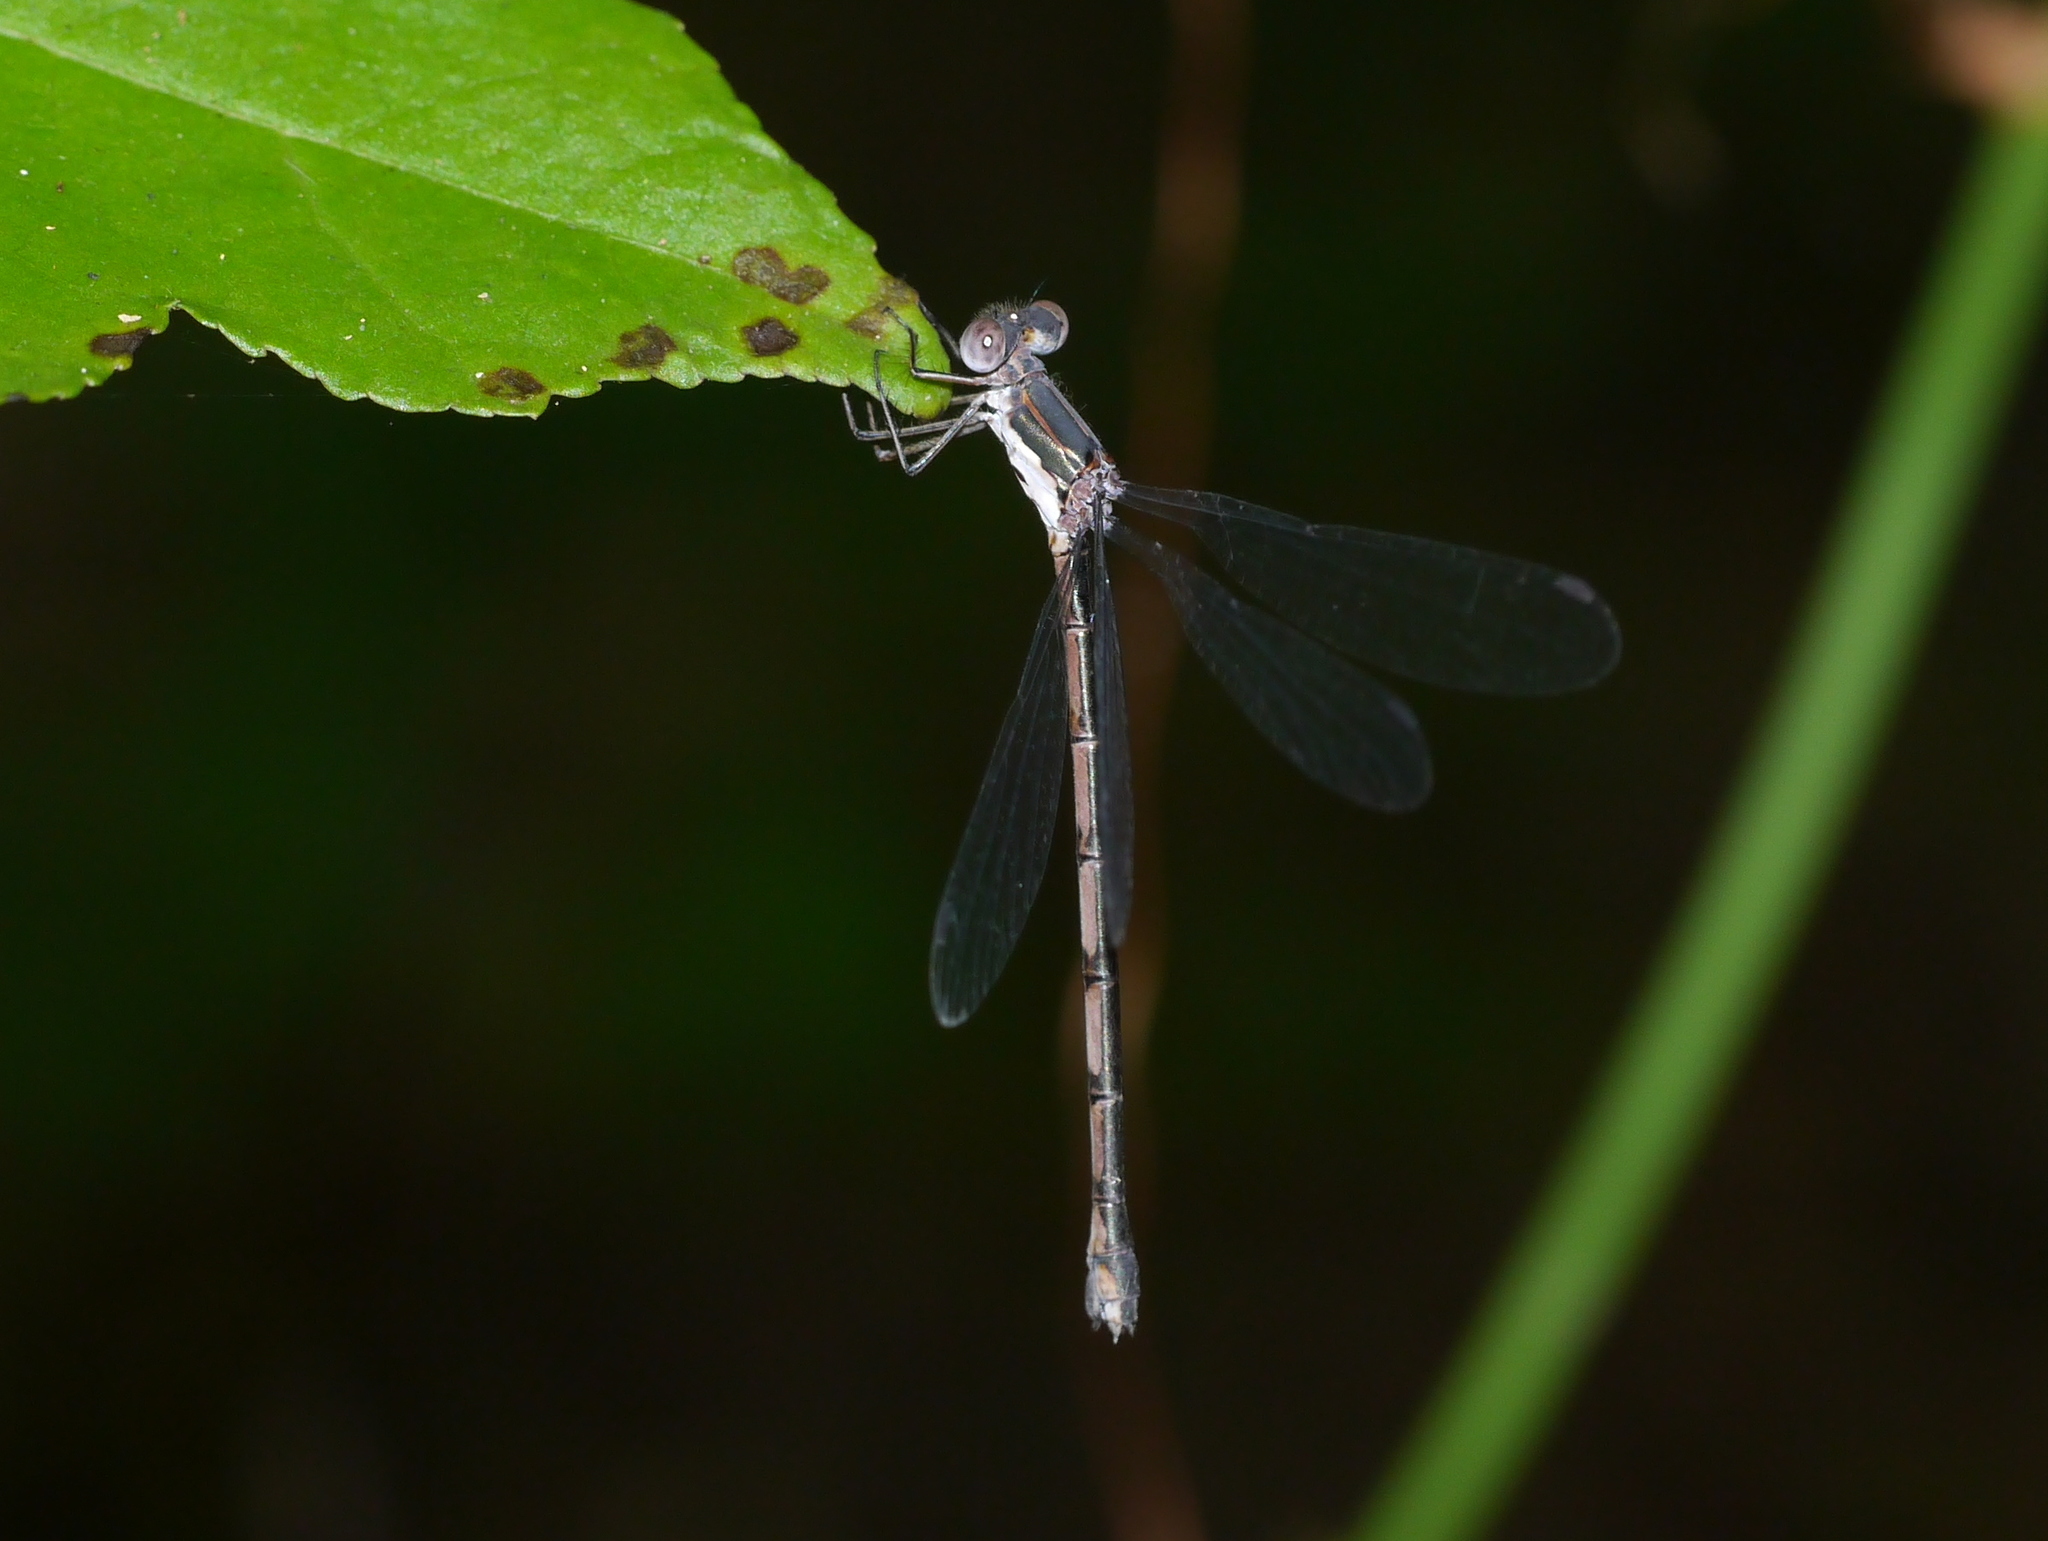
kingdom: Animalia
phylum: Arthropoda
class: Insecta
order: Odonata
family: Lestidae
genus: Lestes
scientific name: Lestes inaequalis
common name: Elegant spreadwing
